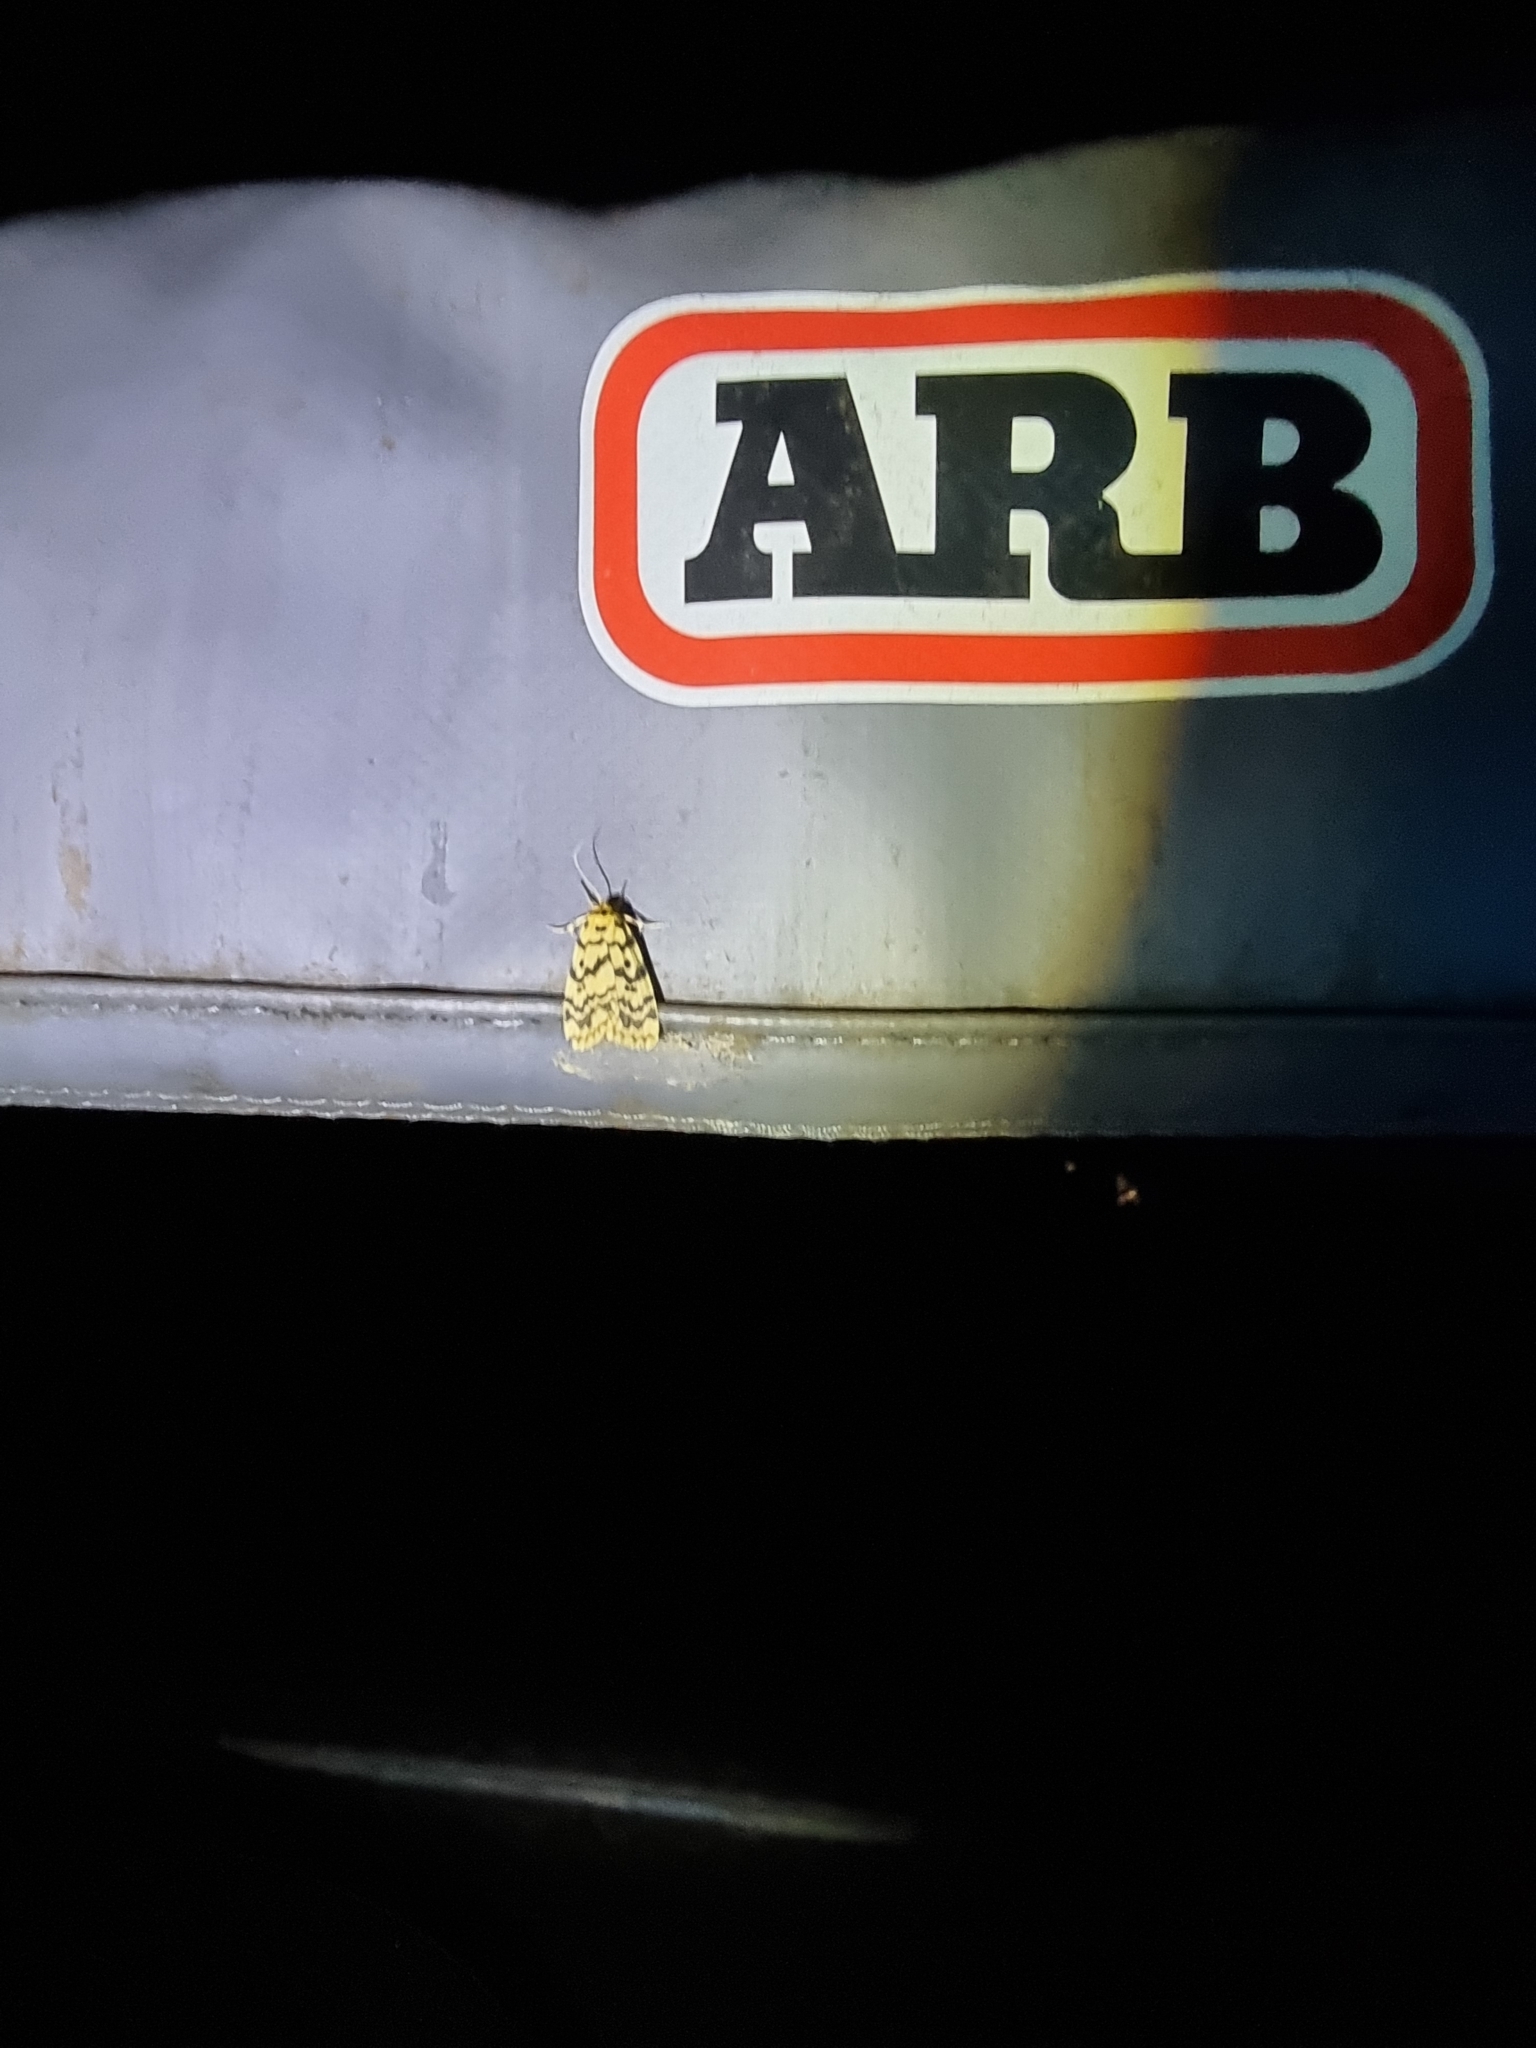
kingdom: Animalia
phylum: Arthropoda
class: Insecta
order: Lepidoptera
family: Erebidae
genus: Hectobrocha
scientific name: Hectobrocha multilinea
